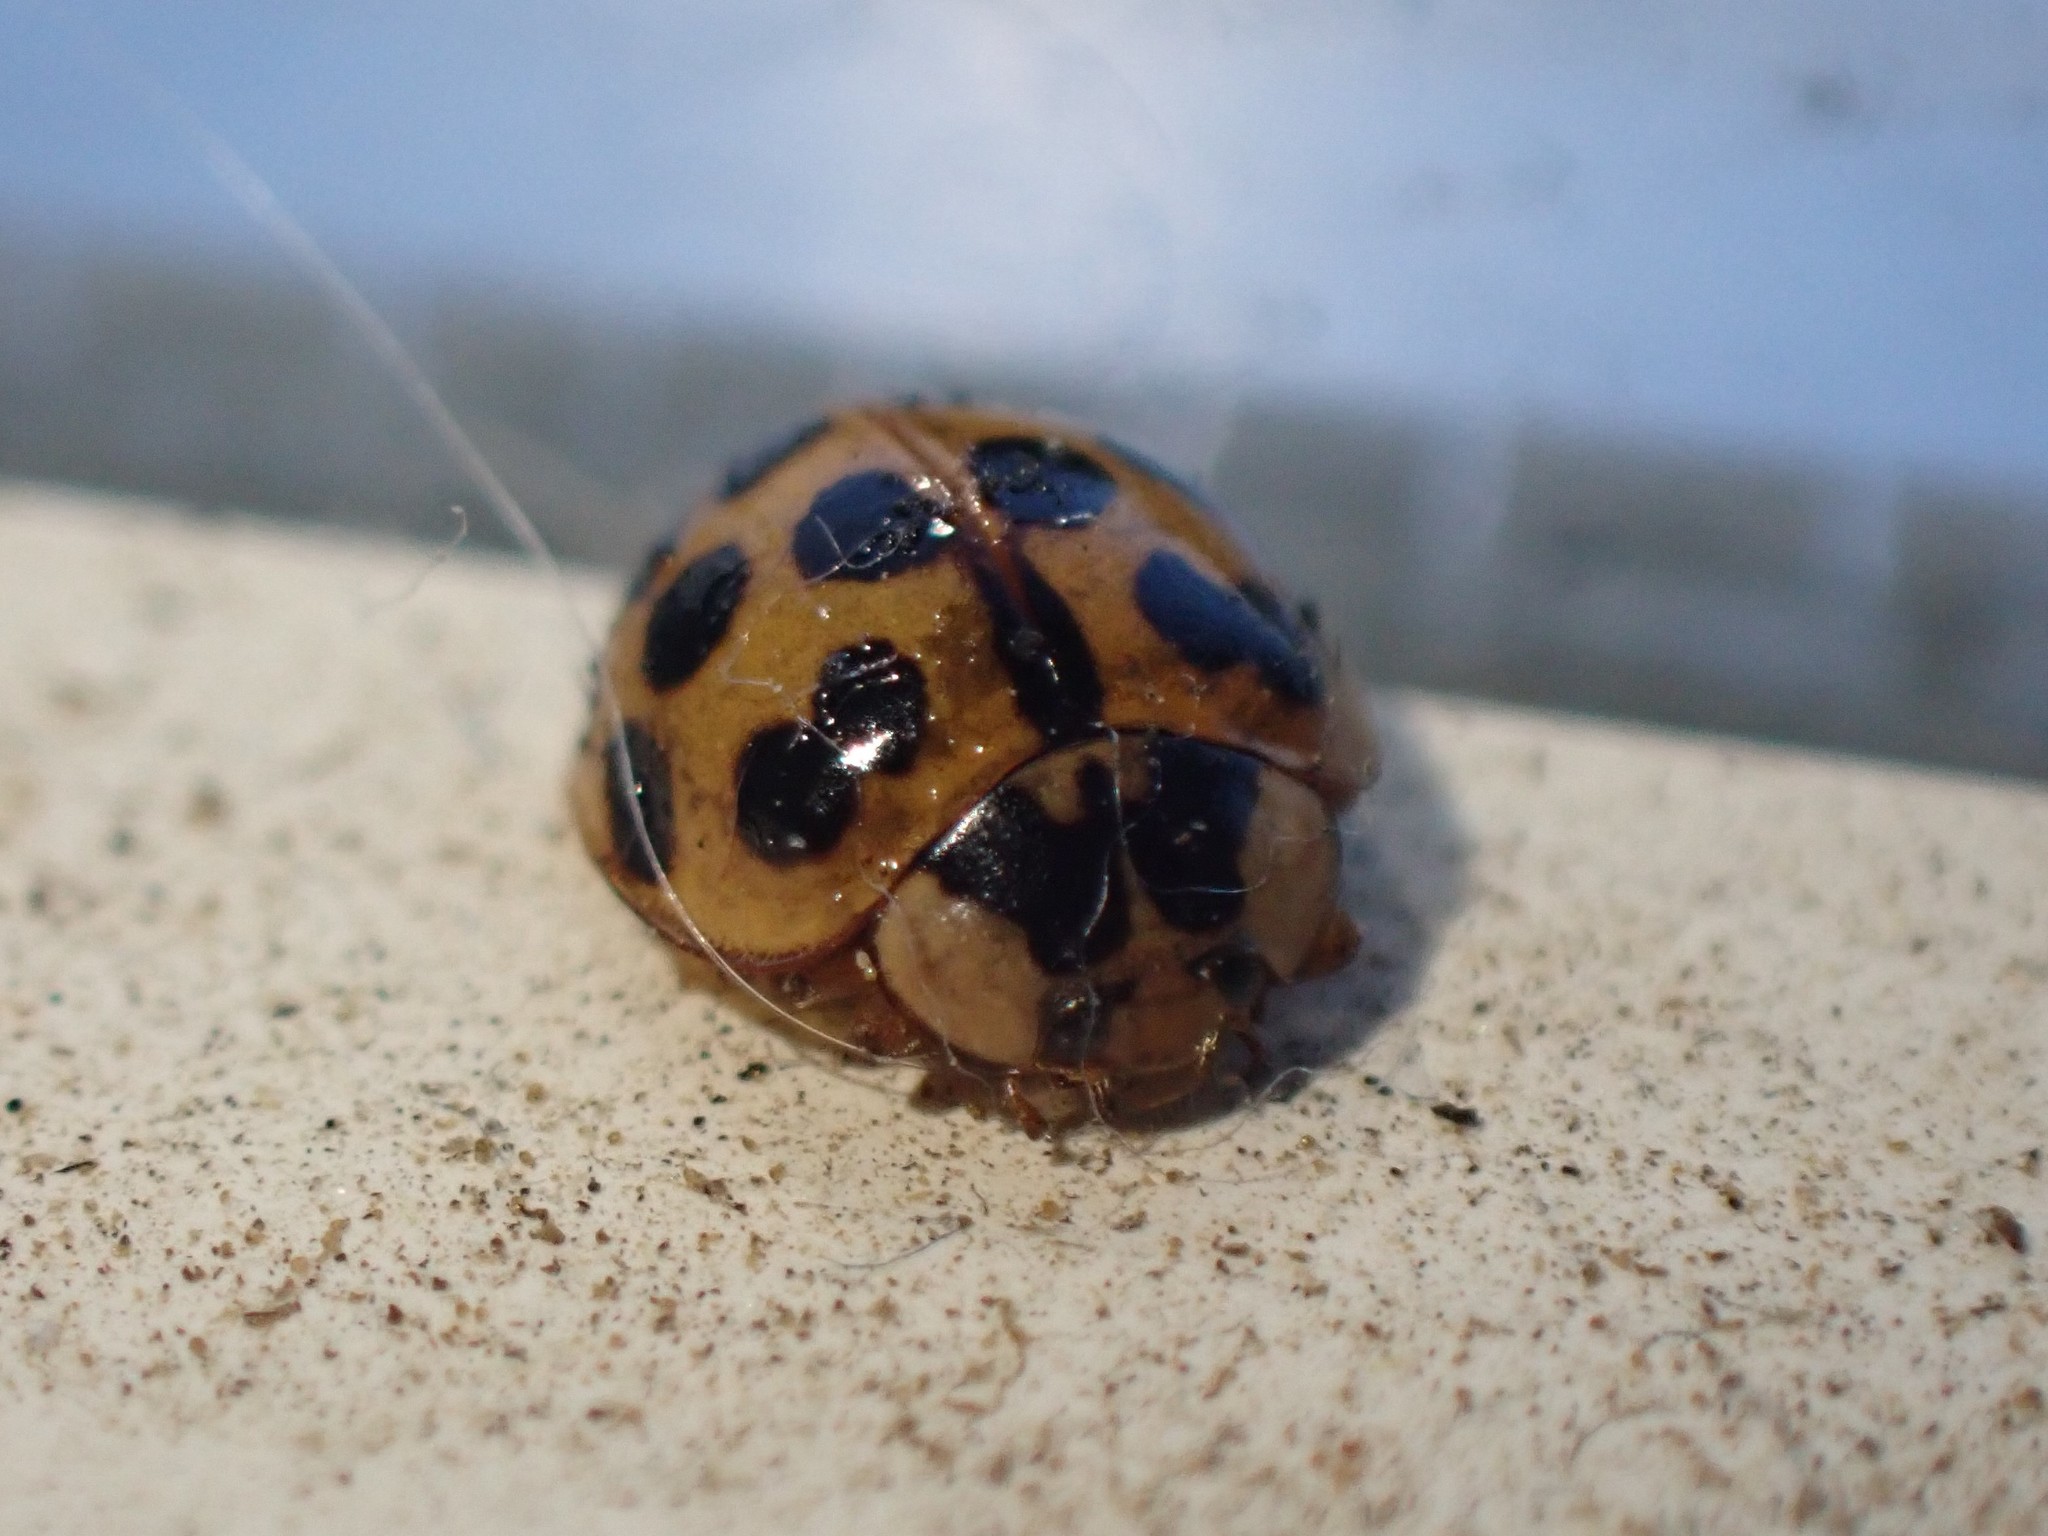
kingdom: Animalia
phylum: Arthropoda
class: Insecta
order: Coleoptera
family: Coccinellidae
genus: Harmonia
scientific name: Harmonia axyridis
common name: Harlequin ladybird
